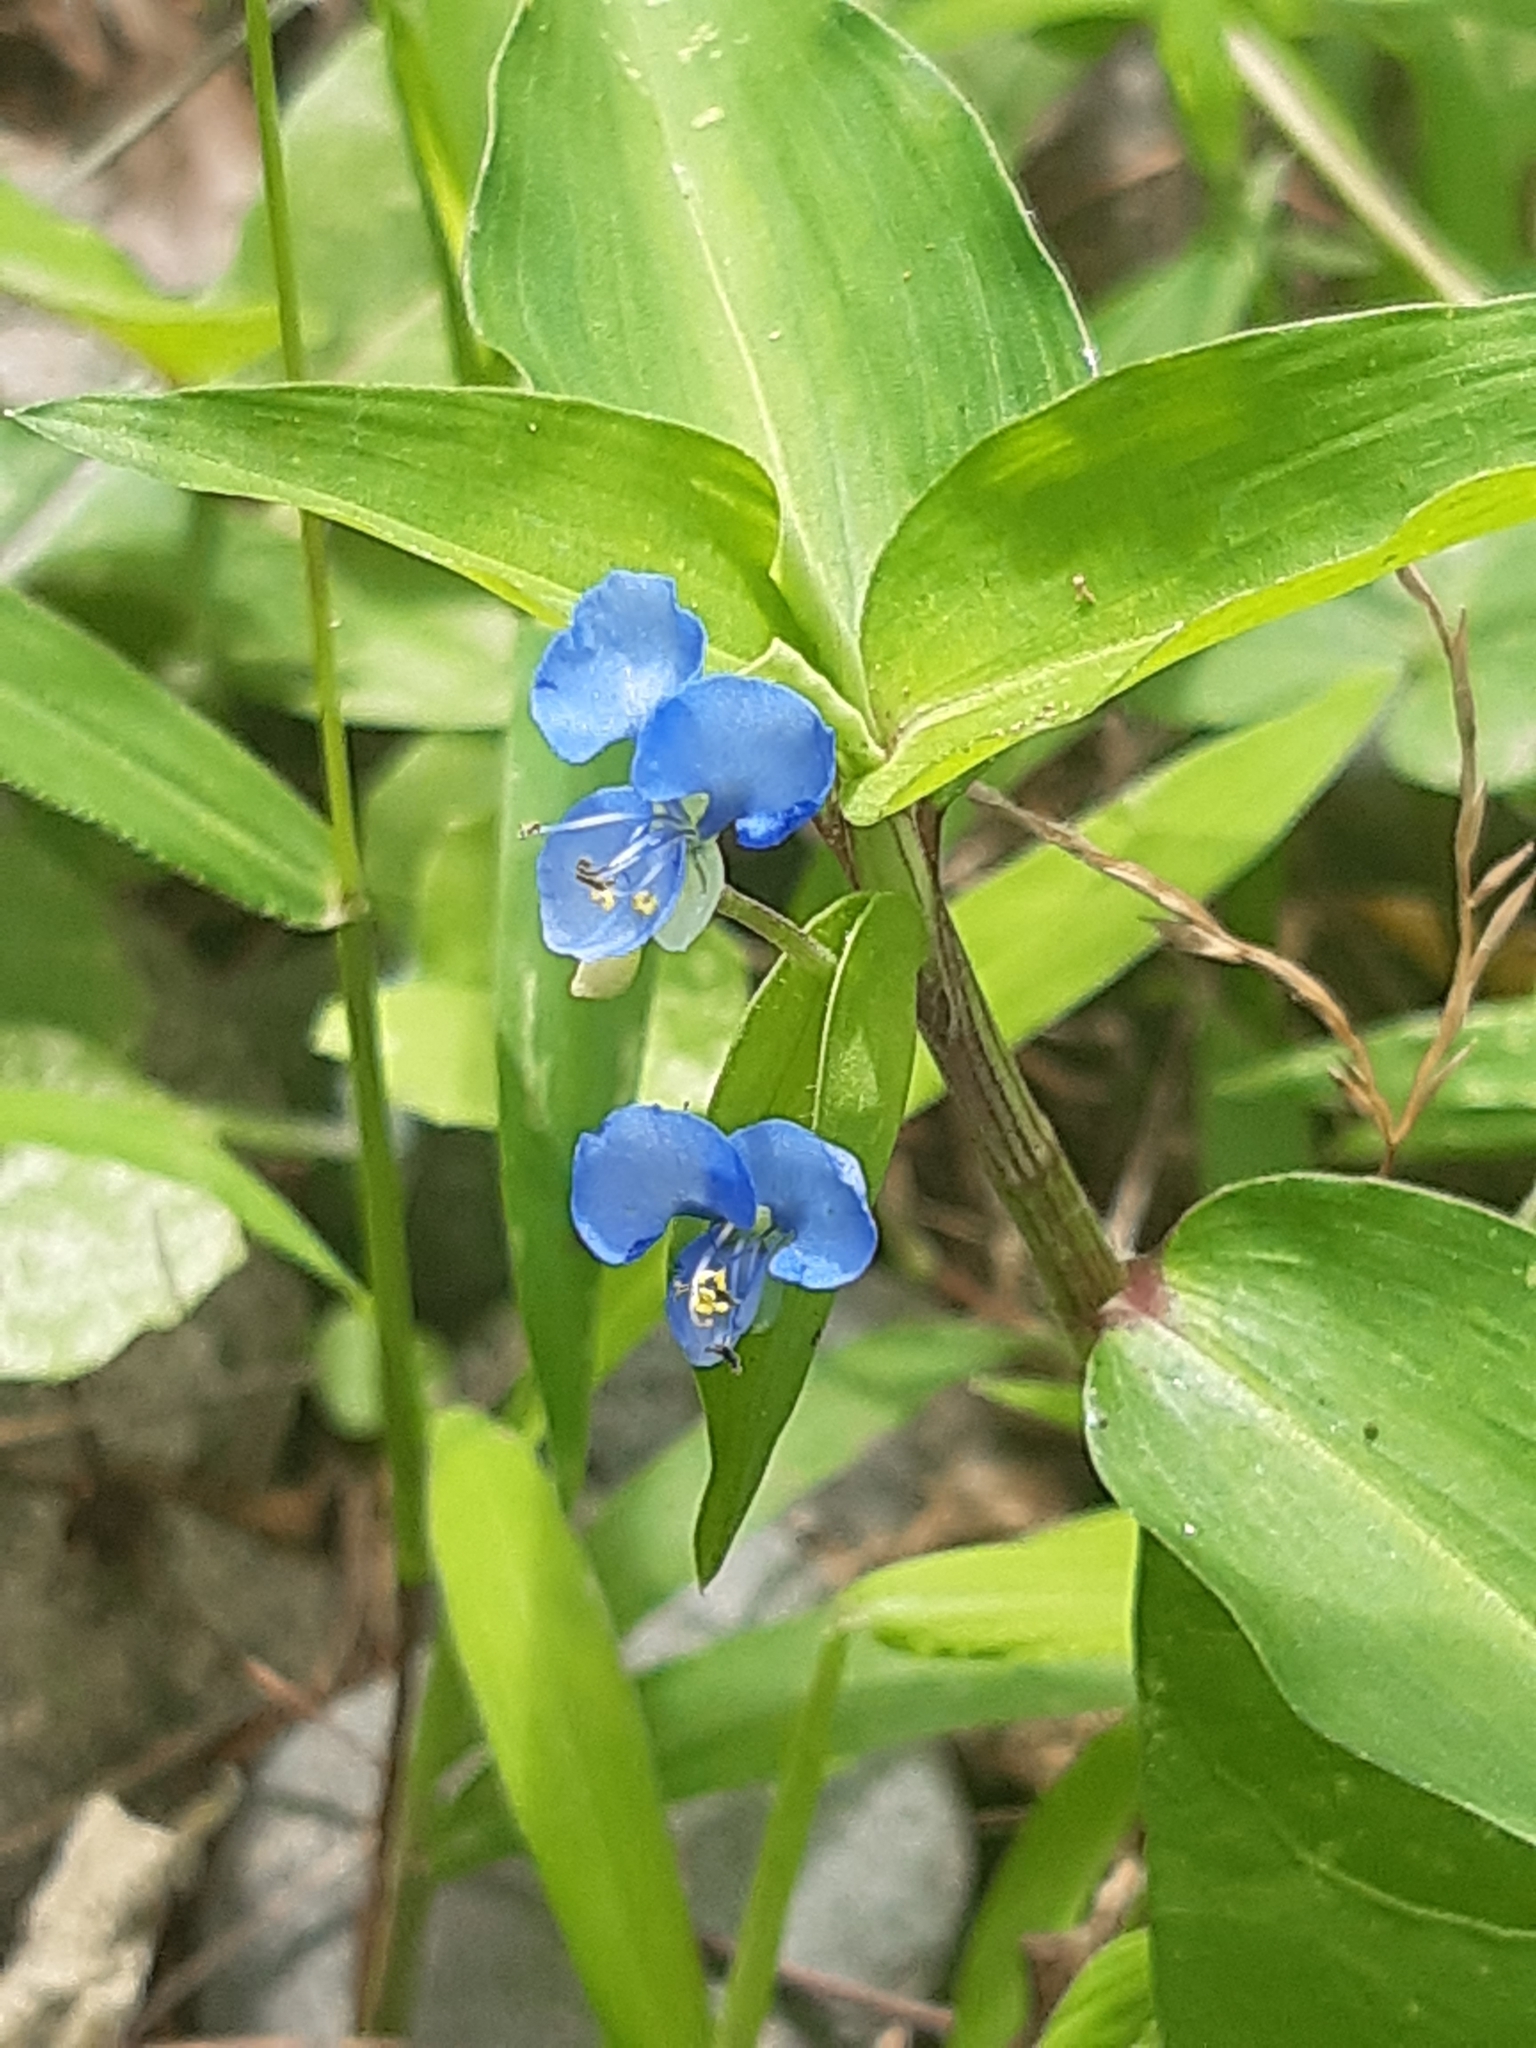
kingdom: Plantae
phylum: Tracheophyta
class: Liliopsida
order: Commelinales
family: Commelinaceae
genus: Commelina
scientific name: Commelina diffusa
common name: Climbing dayflower
